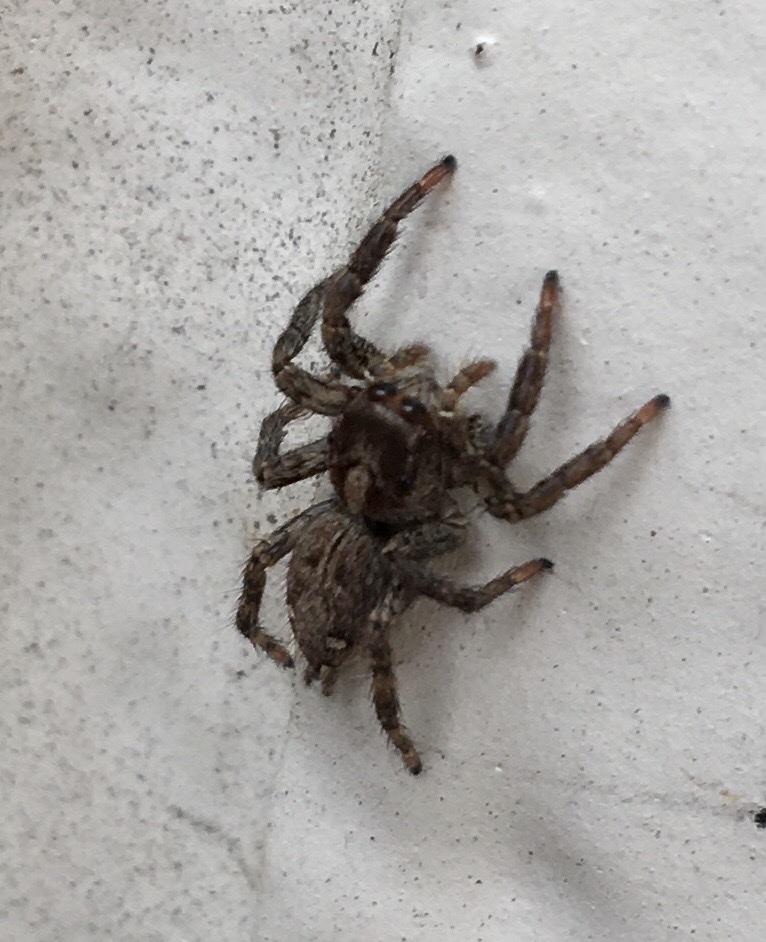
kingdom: Animalia
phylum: Arthropoda
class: Arachnida
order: Araneae
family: Salticidae
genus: Plexippus
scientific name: Plexippus paykulli
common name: Pantropical jumper
